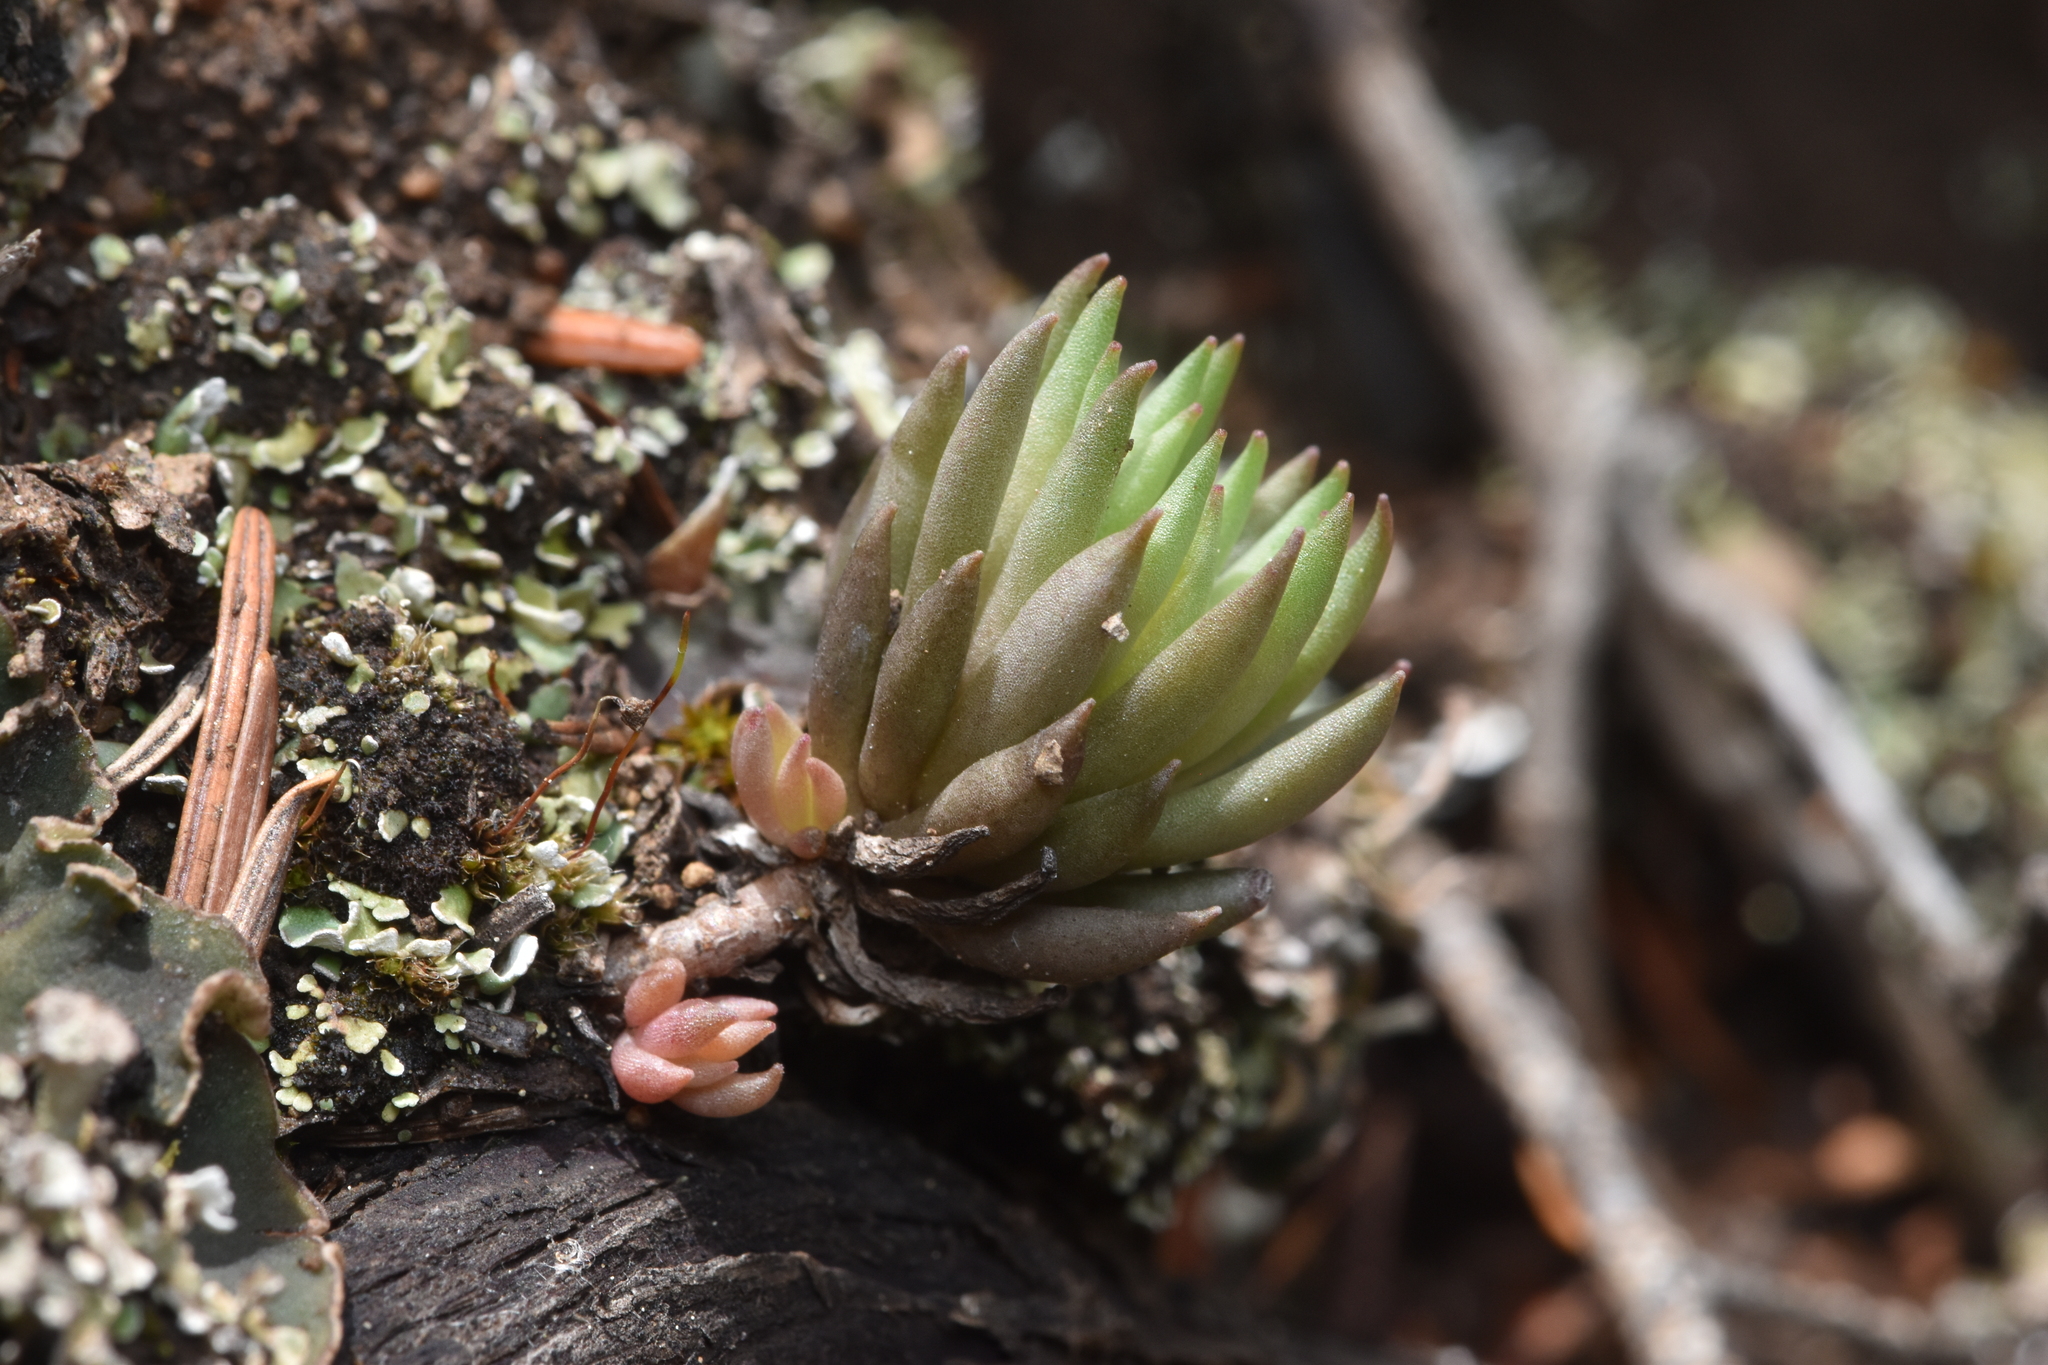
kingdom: Plantae
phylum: Tracheophyta
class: Magnoliopsida
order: Saxifragales
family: Crassulaceae
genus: Sedum
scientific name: Sedum lanceolatum
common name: Common stonecrop
